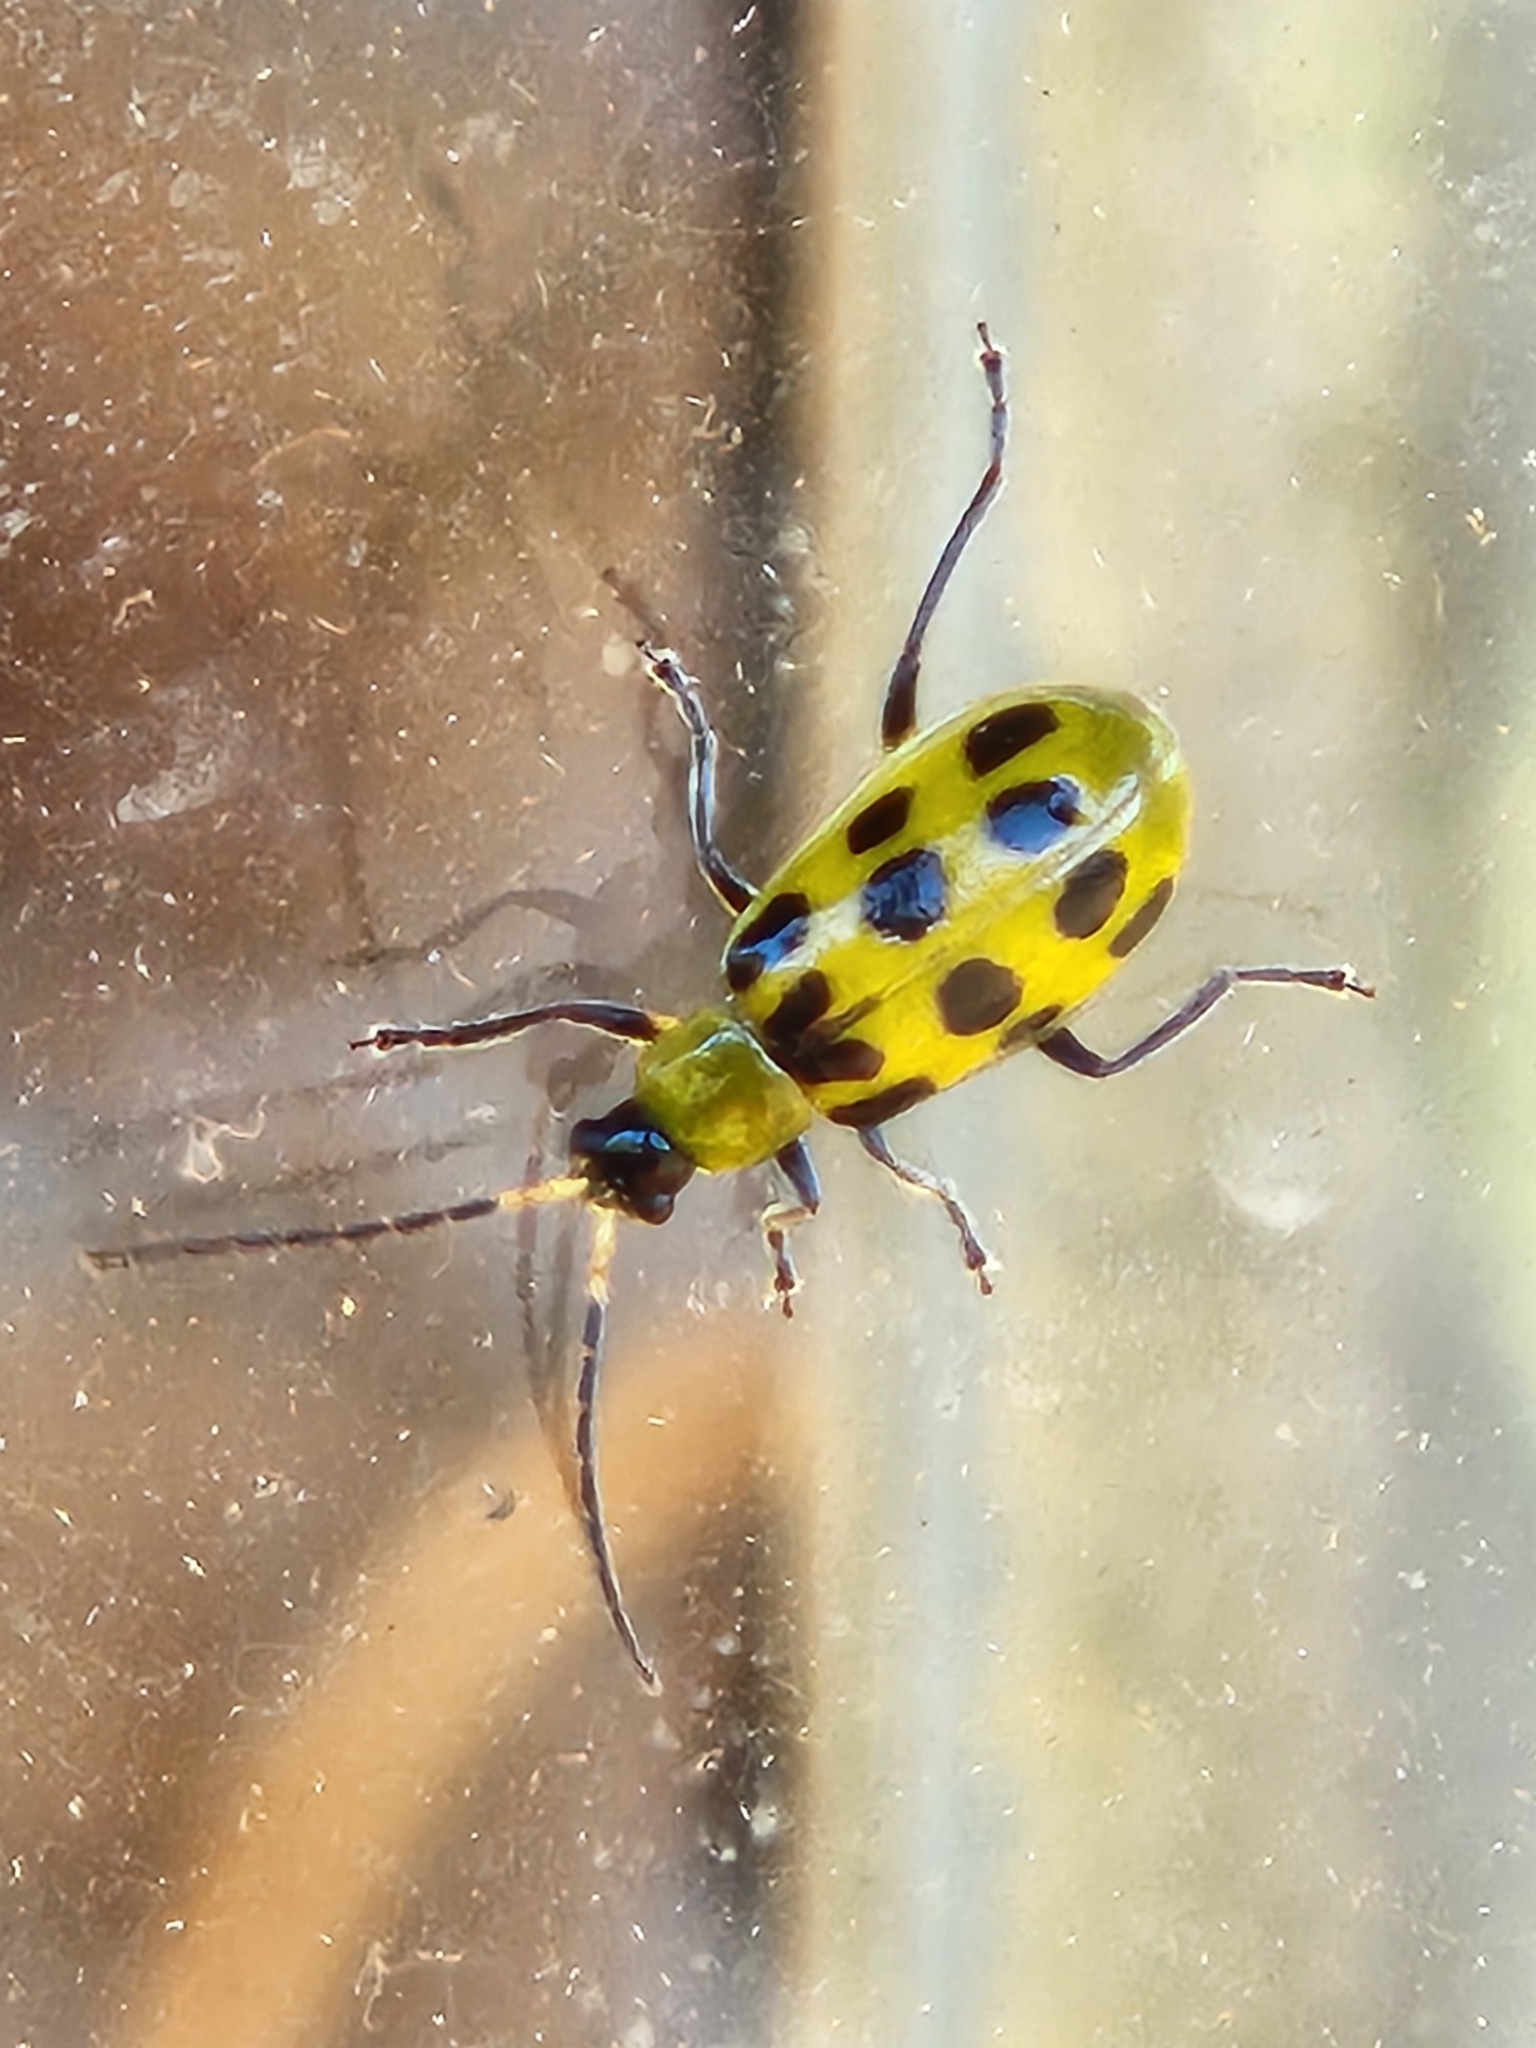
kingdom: Animalia
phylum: Arthropoda
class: Insecta
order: Coleoptera
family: Chrysomelidae
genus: Diabrotica
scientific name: Diabrotica undecimpunctata
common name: Spotted cucumber beetle
